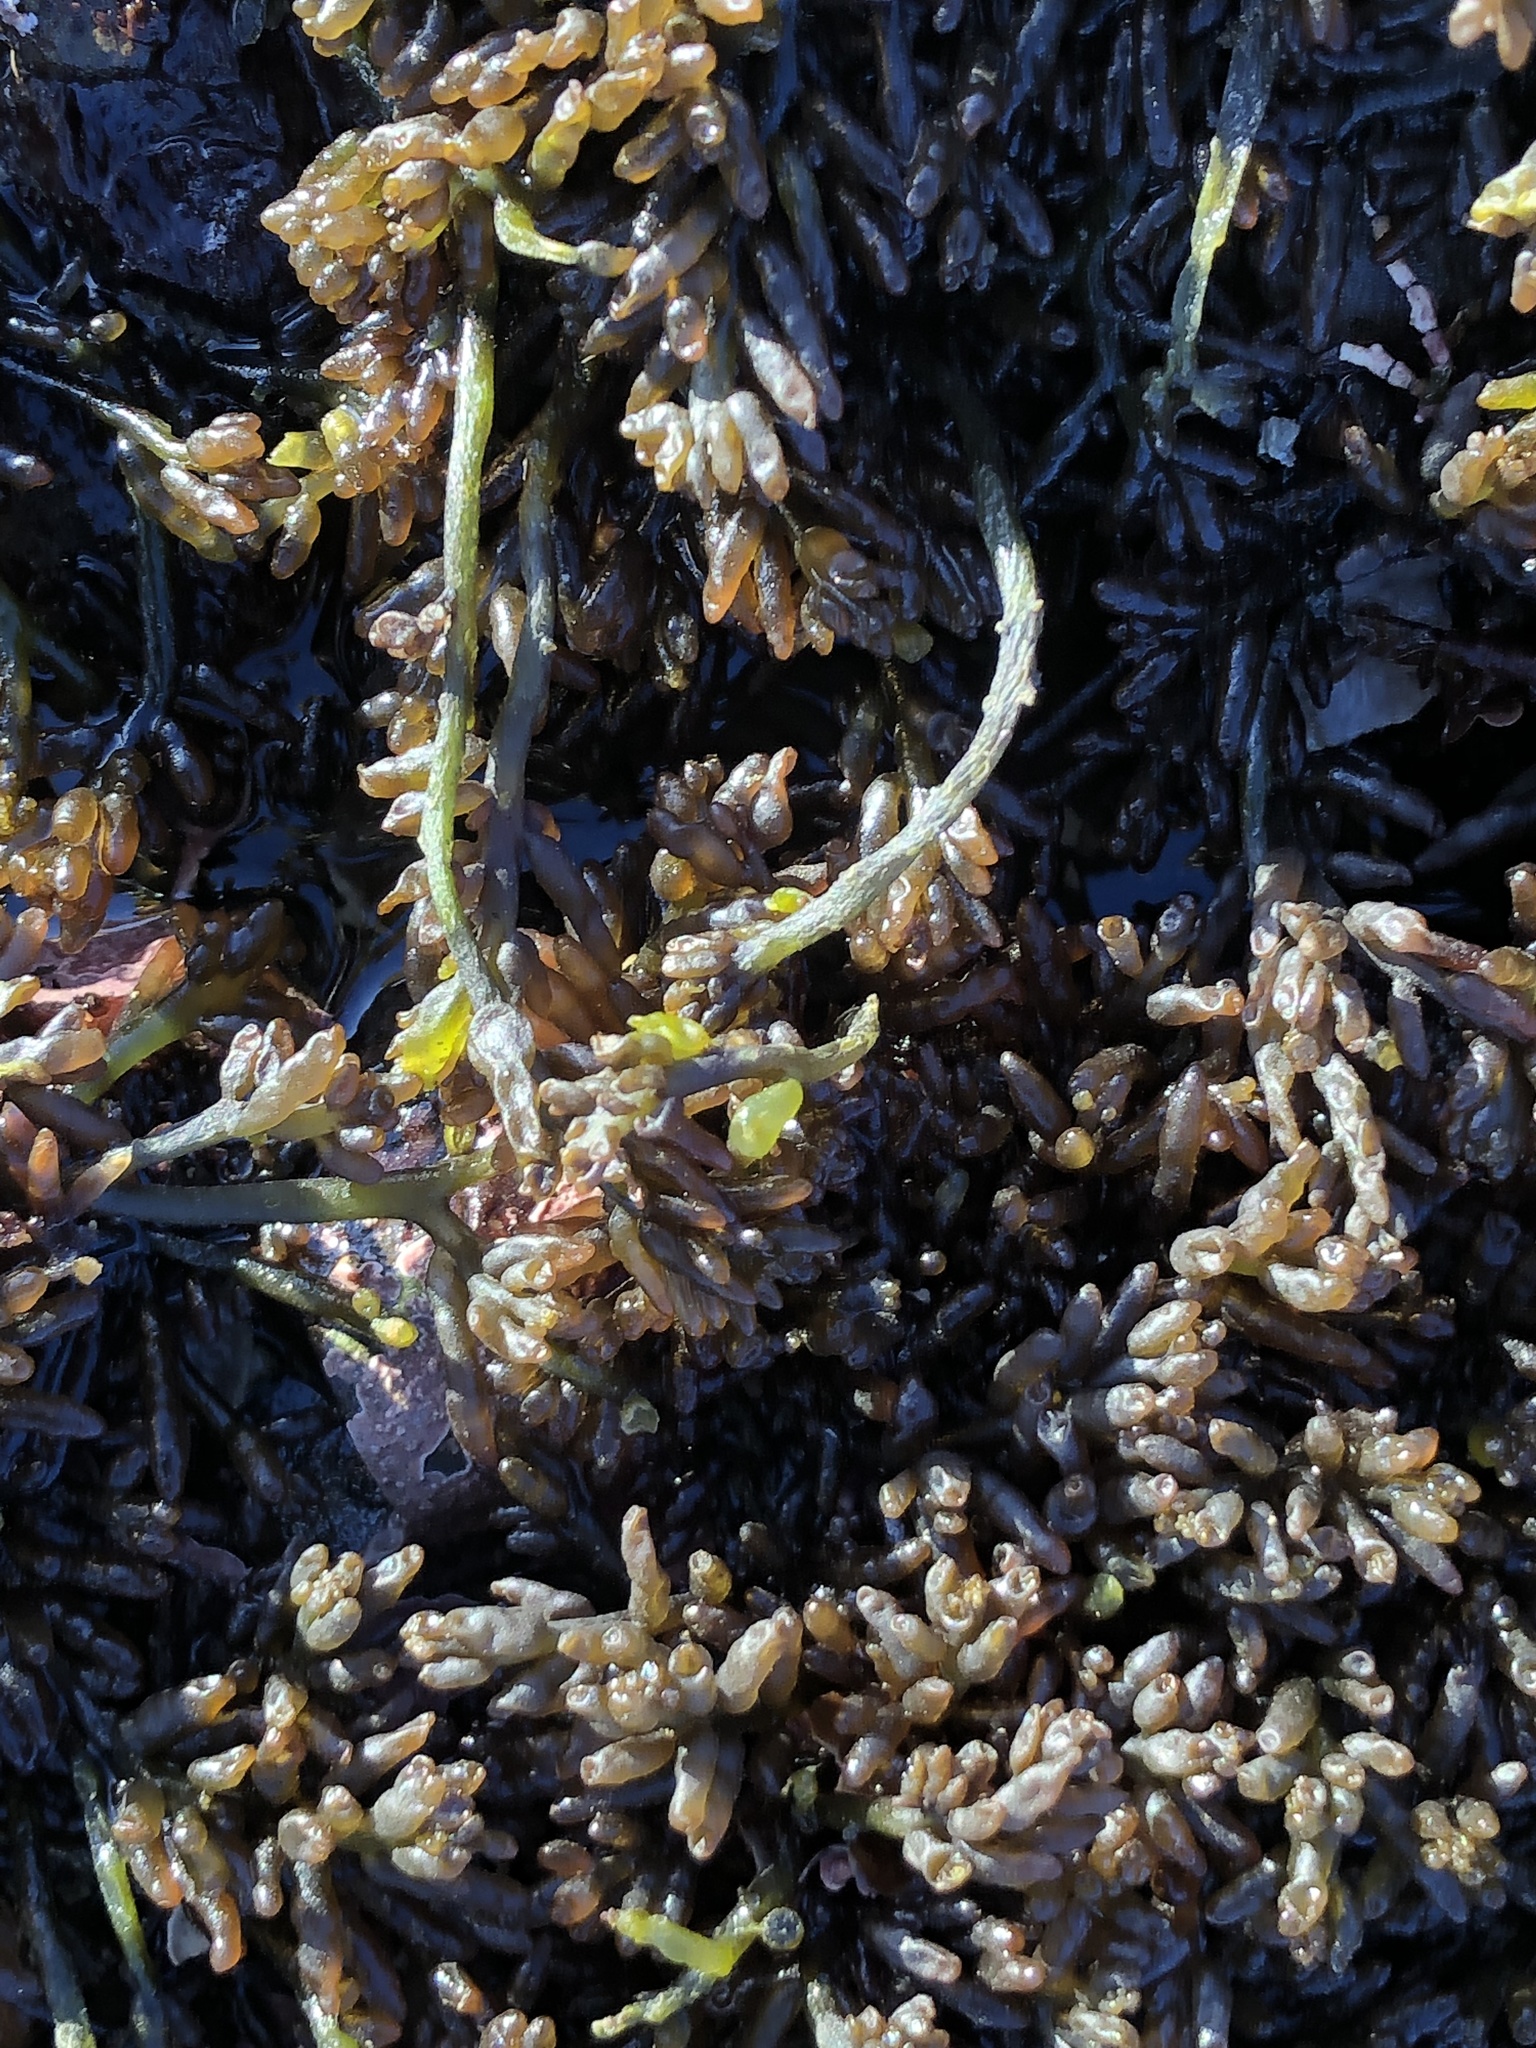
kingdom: Plantae
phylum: Rhodophyta
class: Florideophyceae
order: Rhodymeniales
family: Champiaceae
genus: Neogastroclonium
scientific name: Neogastroclonium subarticulatum
